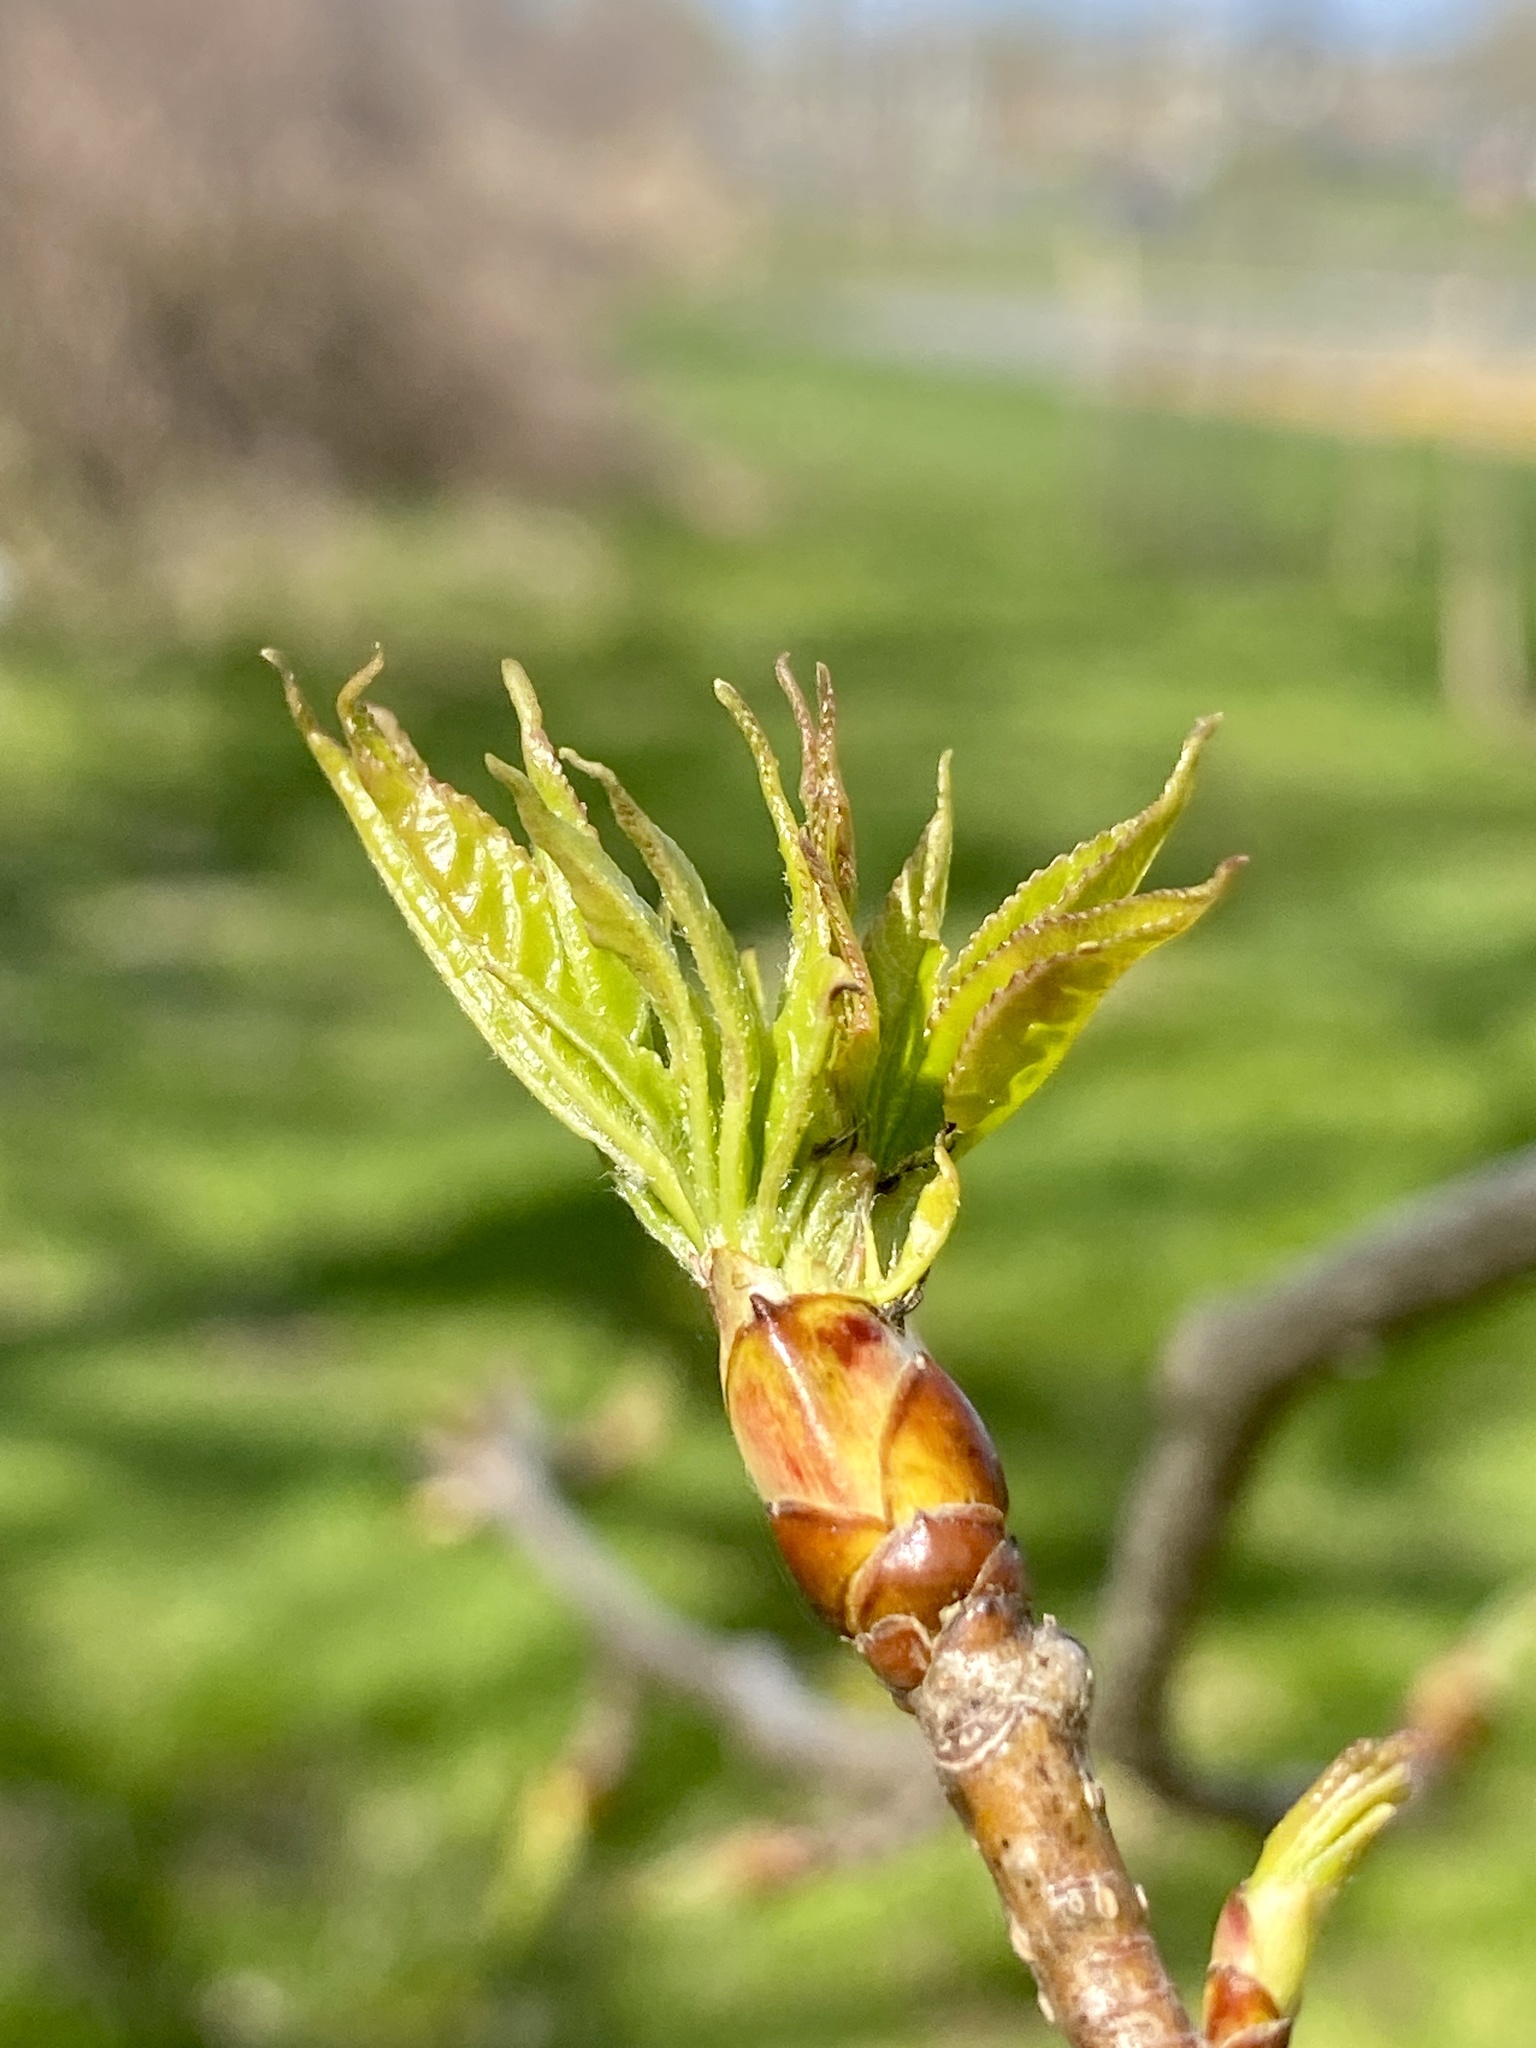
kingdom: Plantae
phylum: Tracheophyta
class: Magnoliopsida
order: Saxifragales
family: Altingiaceae
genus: Liquidambar
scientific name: Liquidambar styraciflua
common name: Sweet gum
